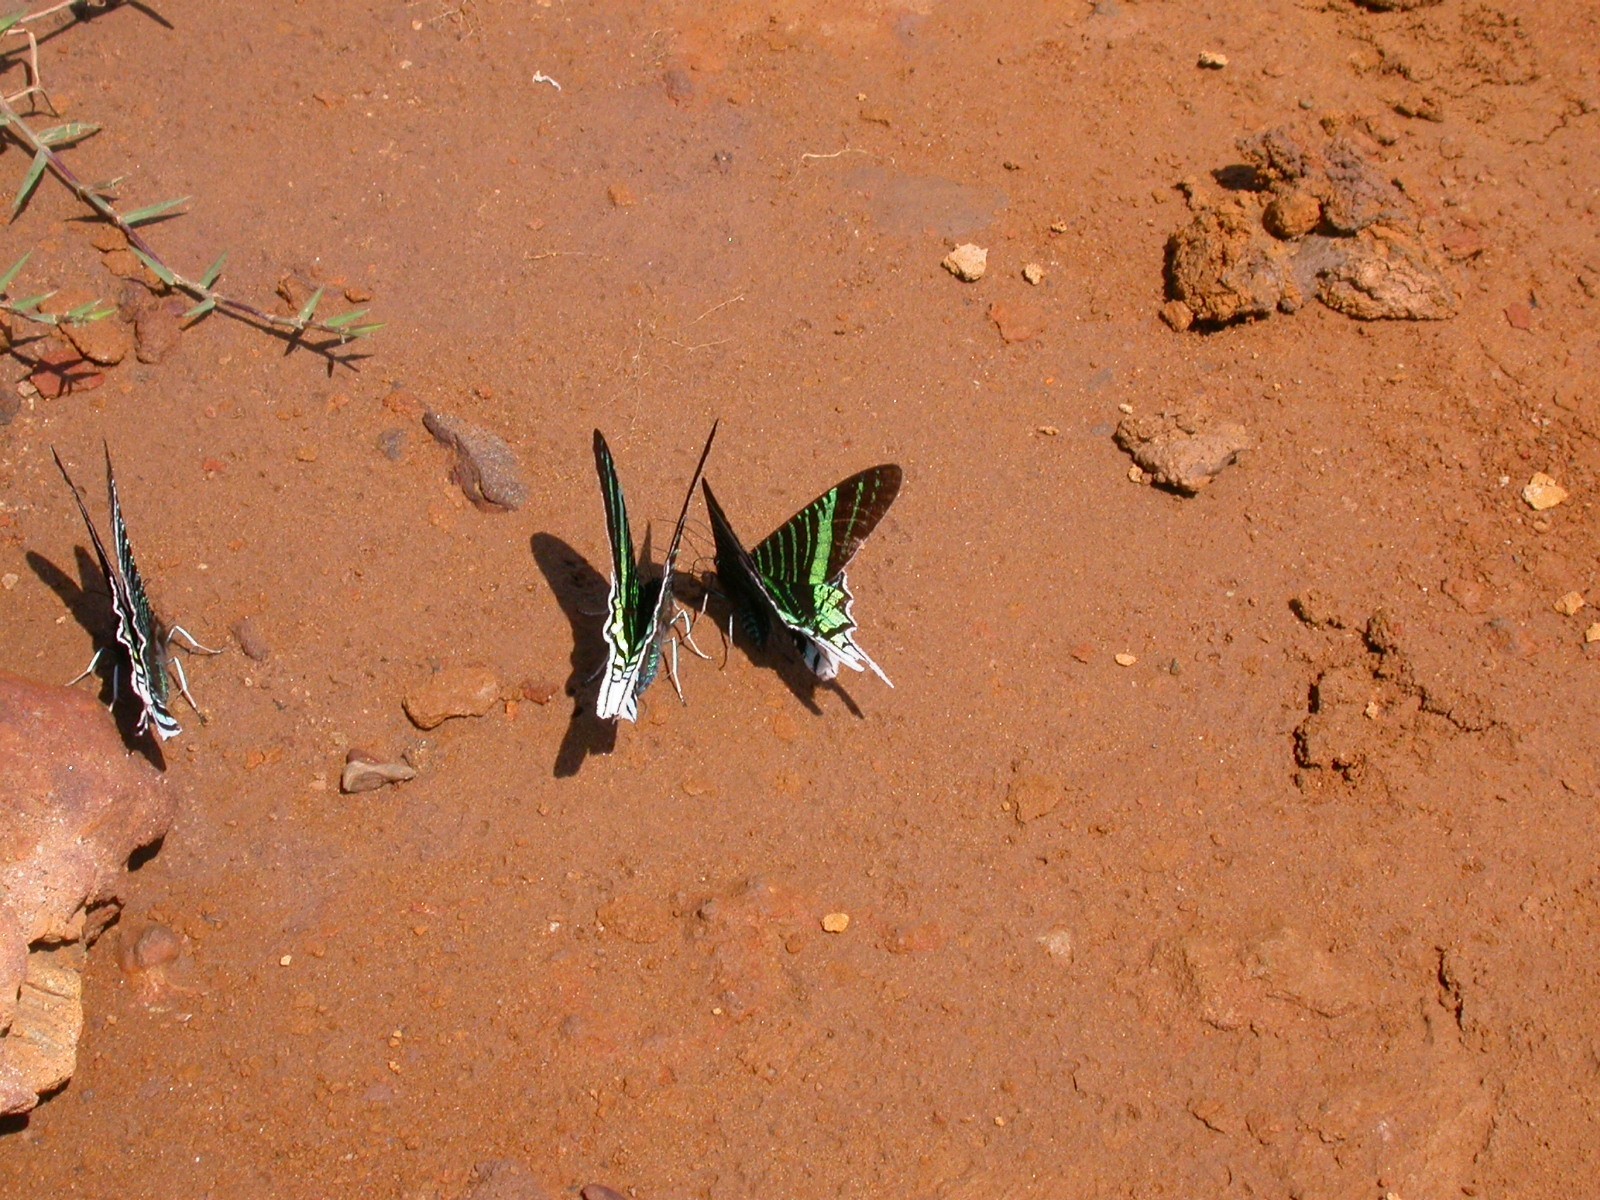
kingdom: Animalia
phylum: Arthropoda
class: Insecta
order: Lepidoptera
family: Uraniidae
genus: Urania
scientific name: Urania leilus
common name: Peacock moth
